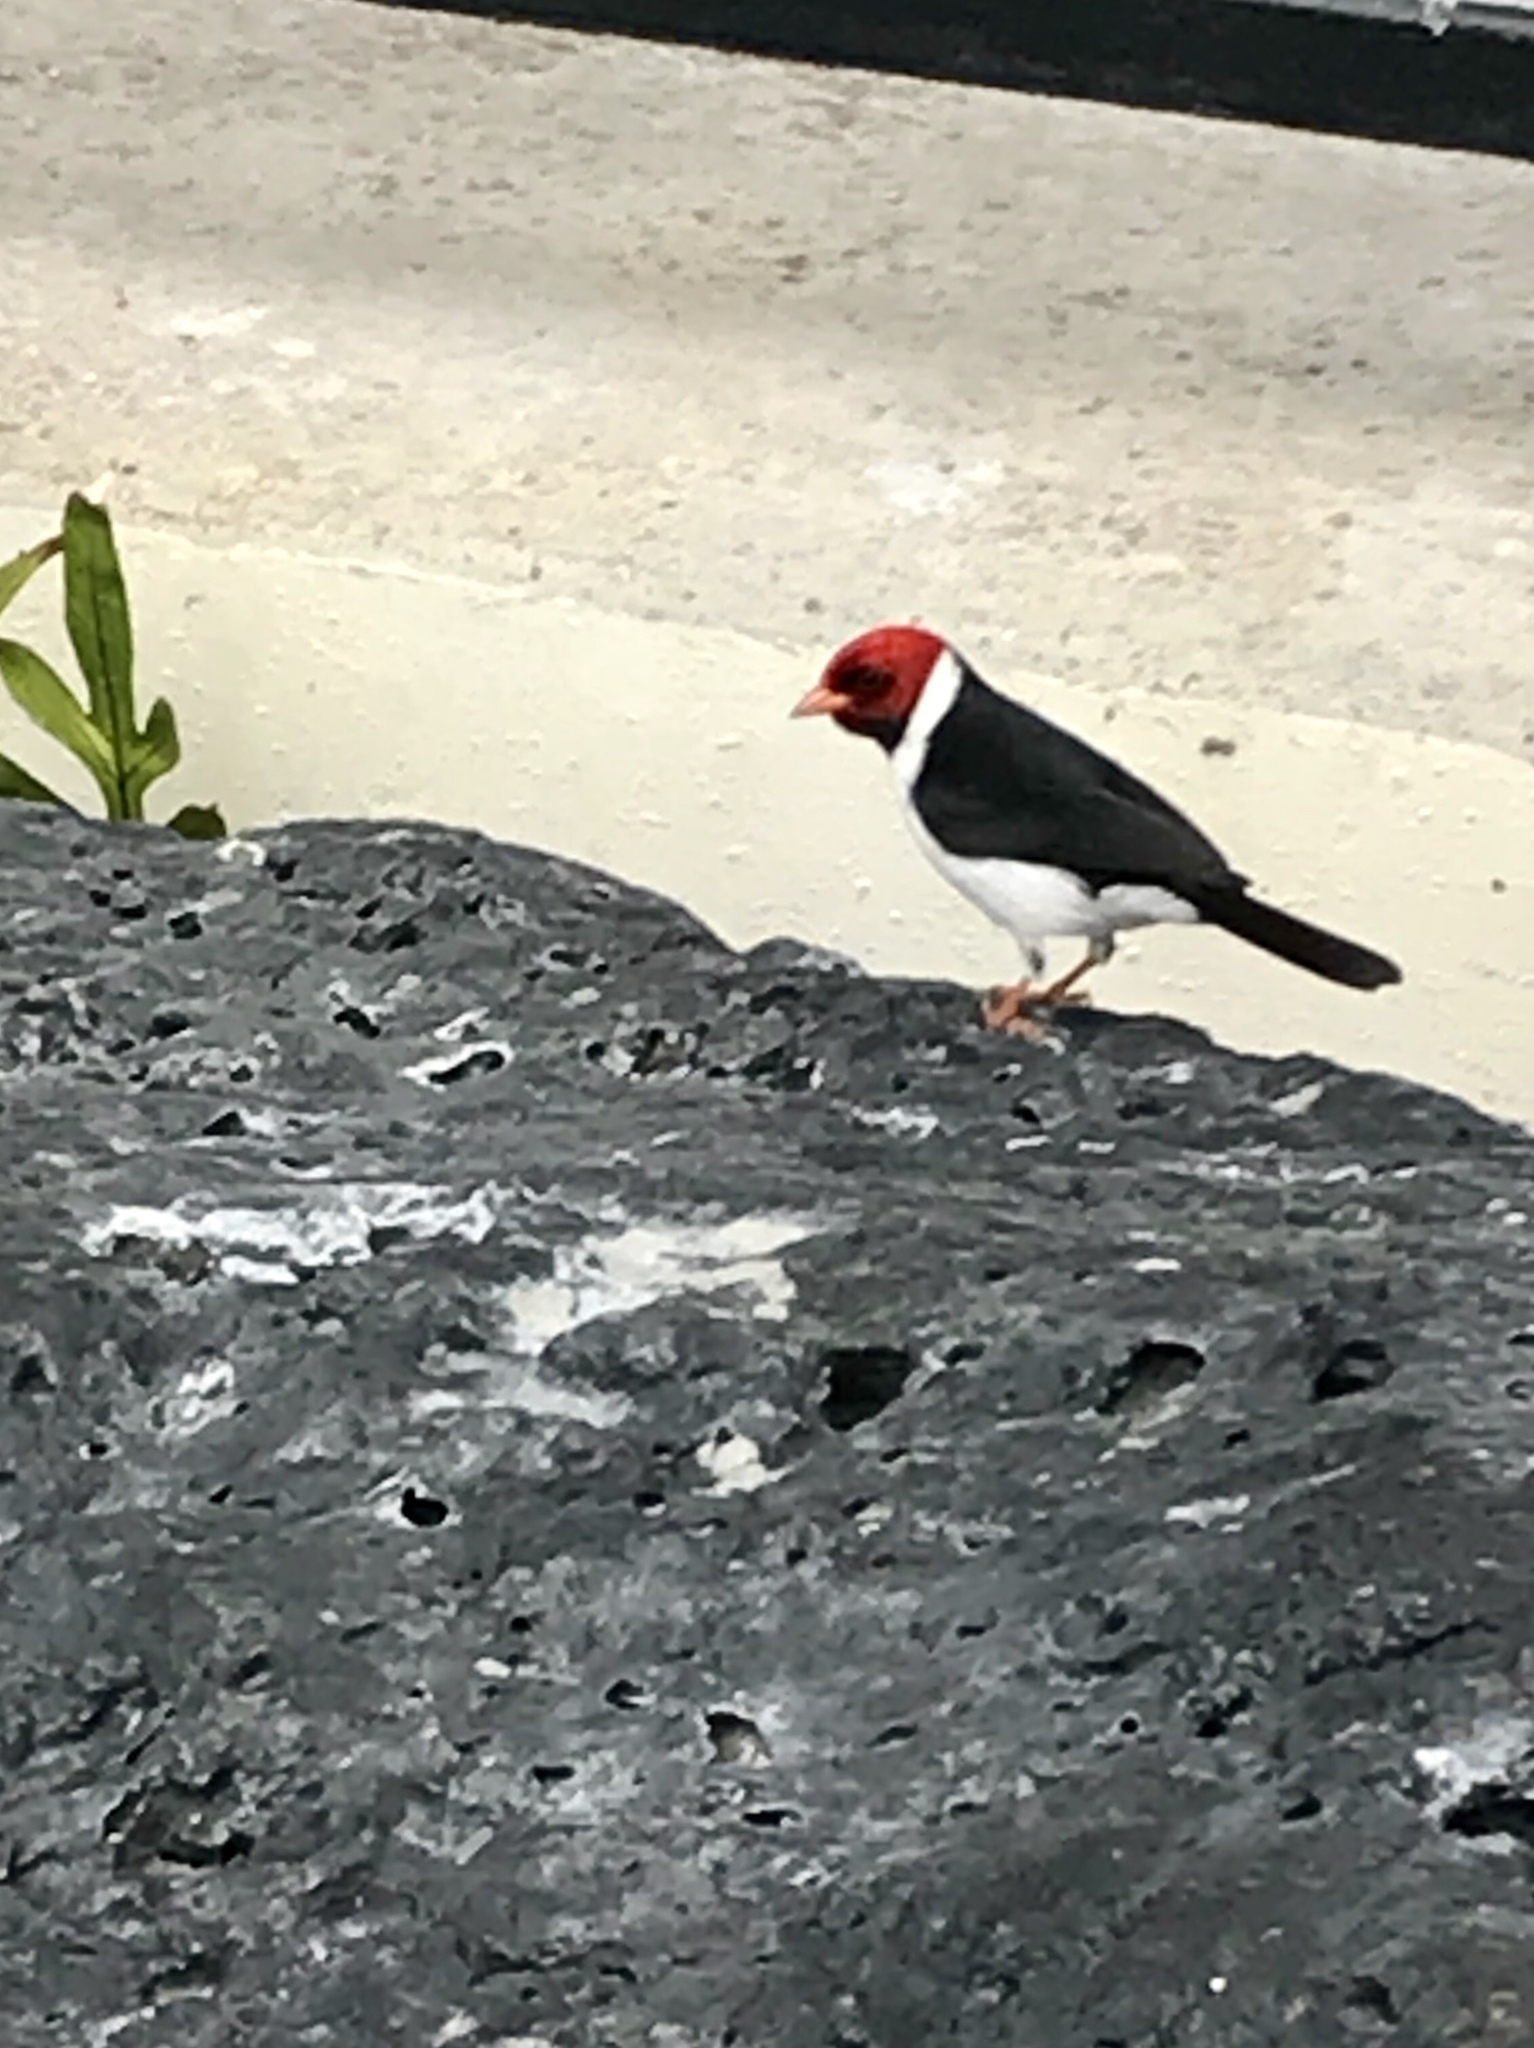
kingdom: Animalia
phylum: Chordata
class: Aves
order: Passeriformes
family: Thraupidae
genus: Paroaria
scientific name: Paroaria capitata
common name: Yellow-billed cardinal
